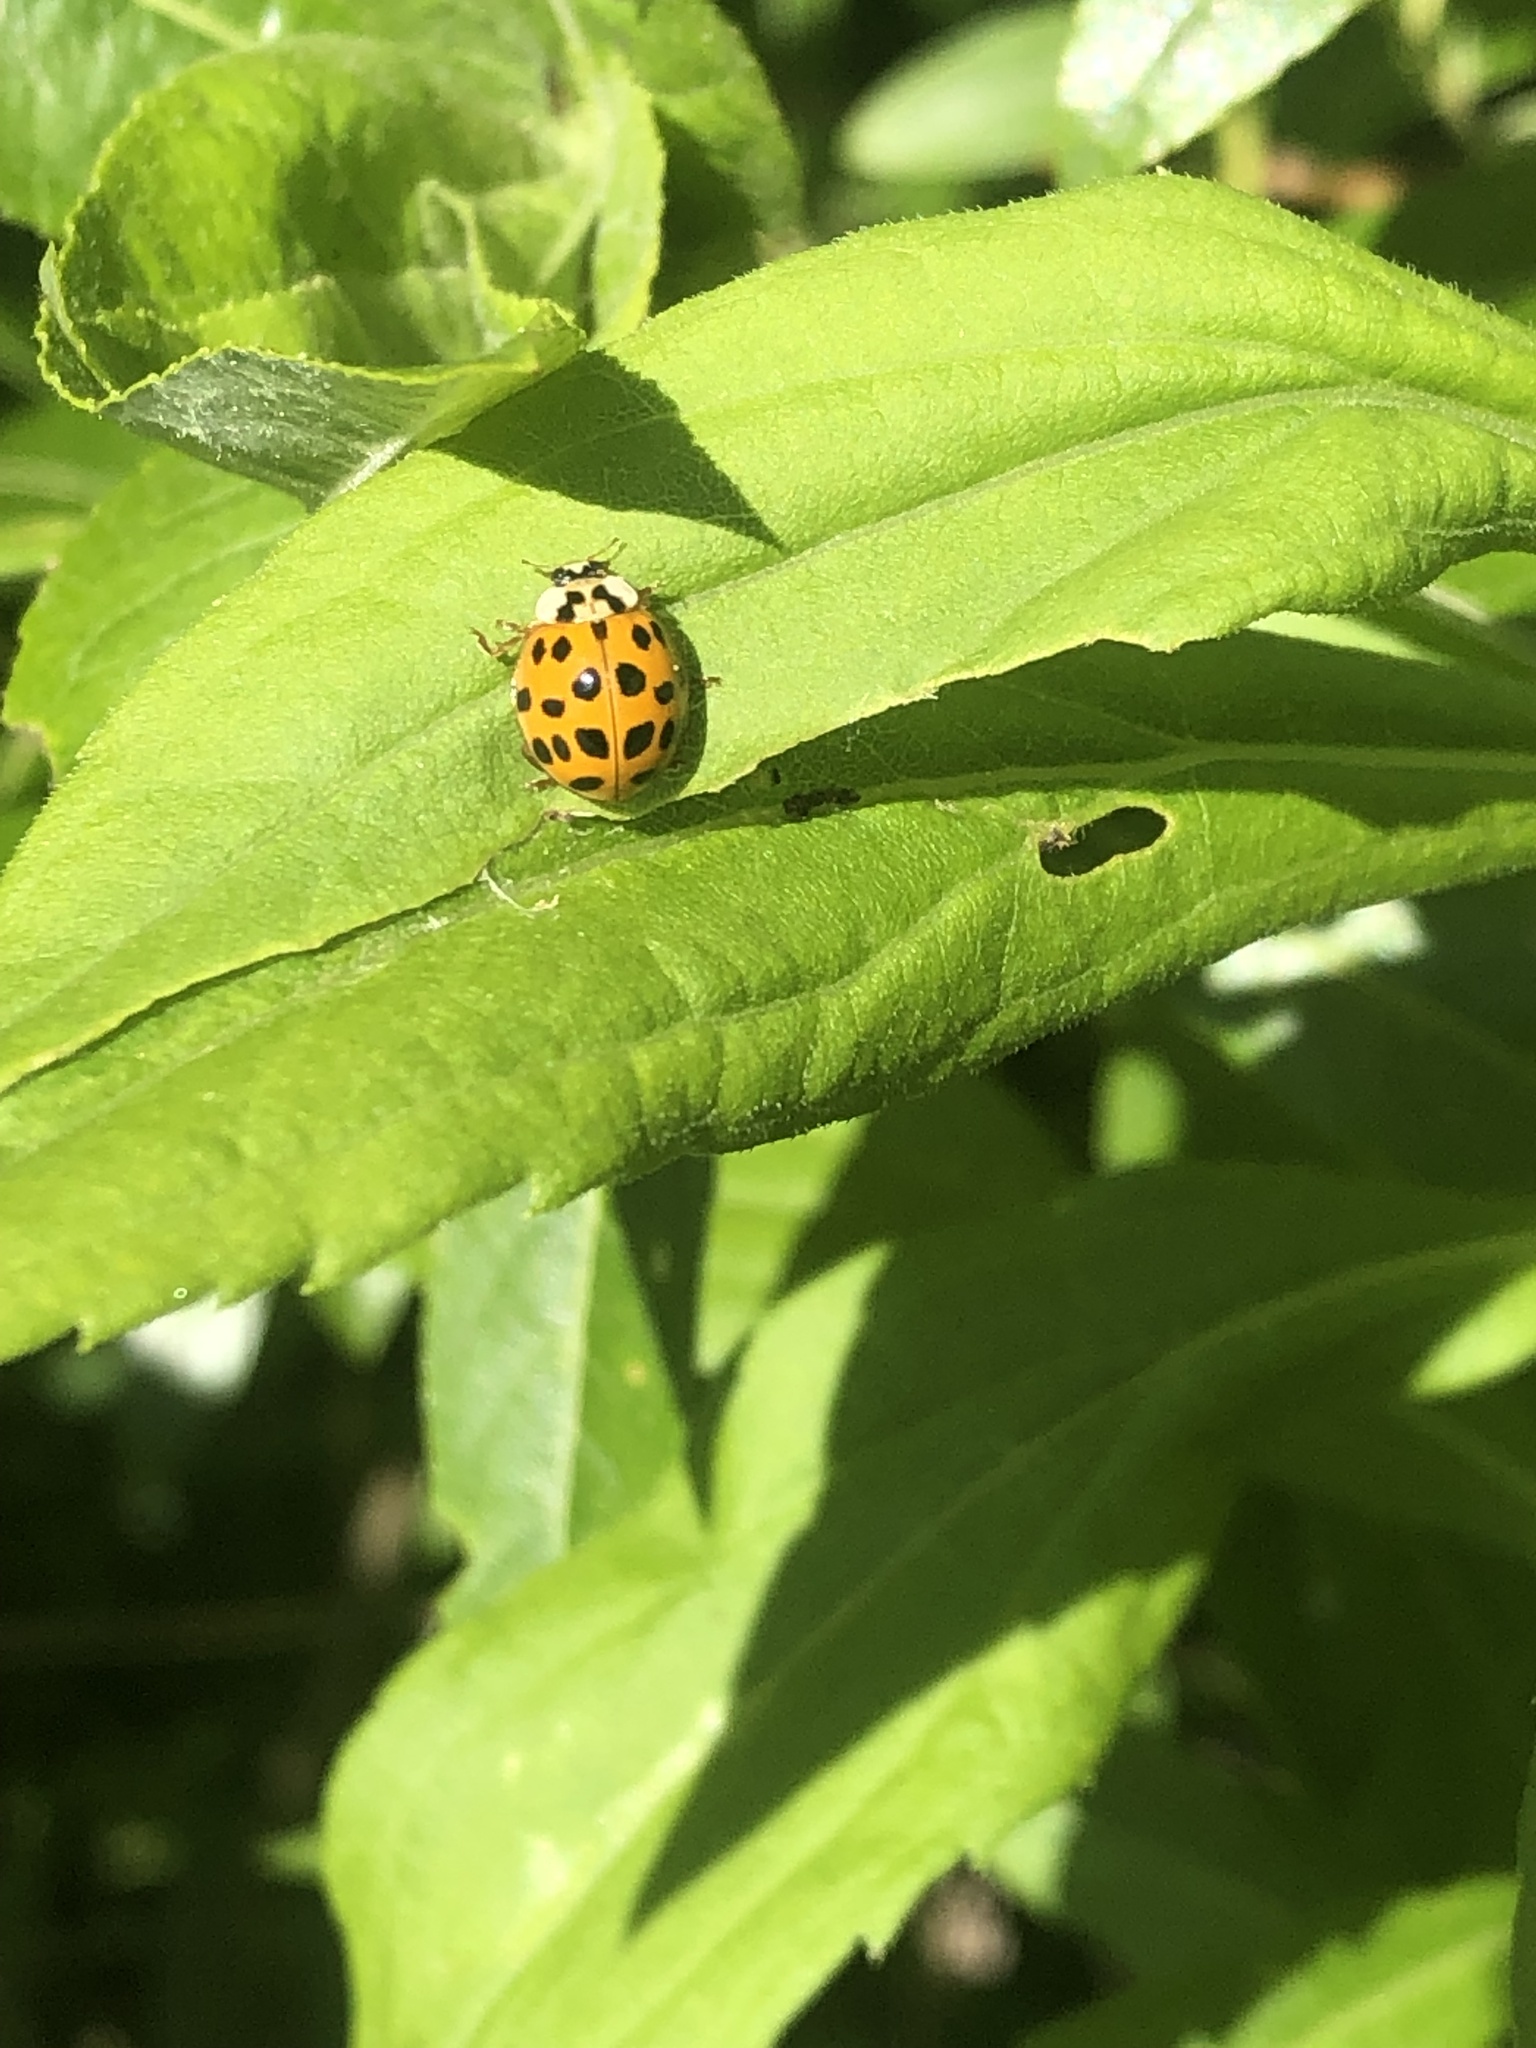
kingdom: Animalia
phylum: Arthropoda
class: Insecta
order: Coleoptera
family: Coccinellidae
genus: Harmonia
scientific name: Harmonia axyridis
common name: Harlequin ladybird
